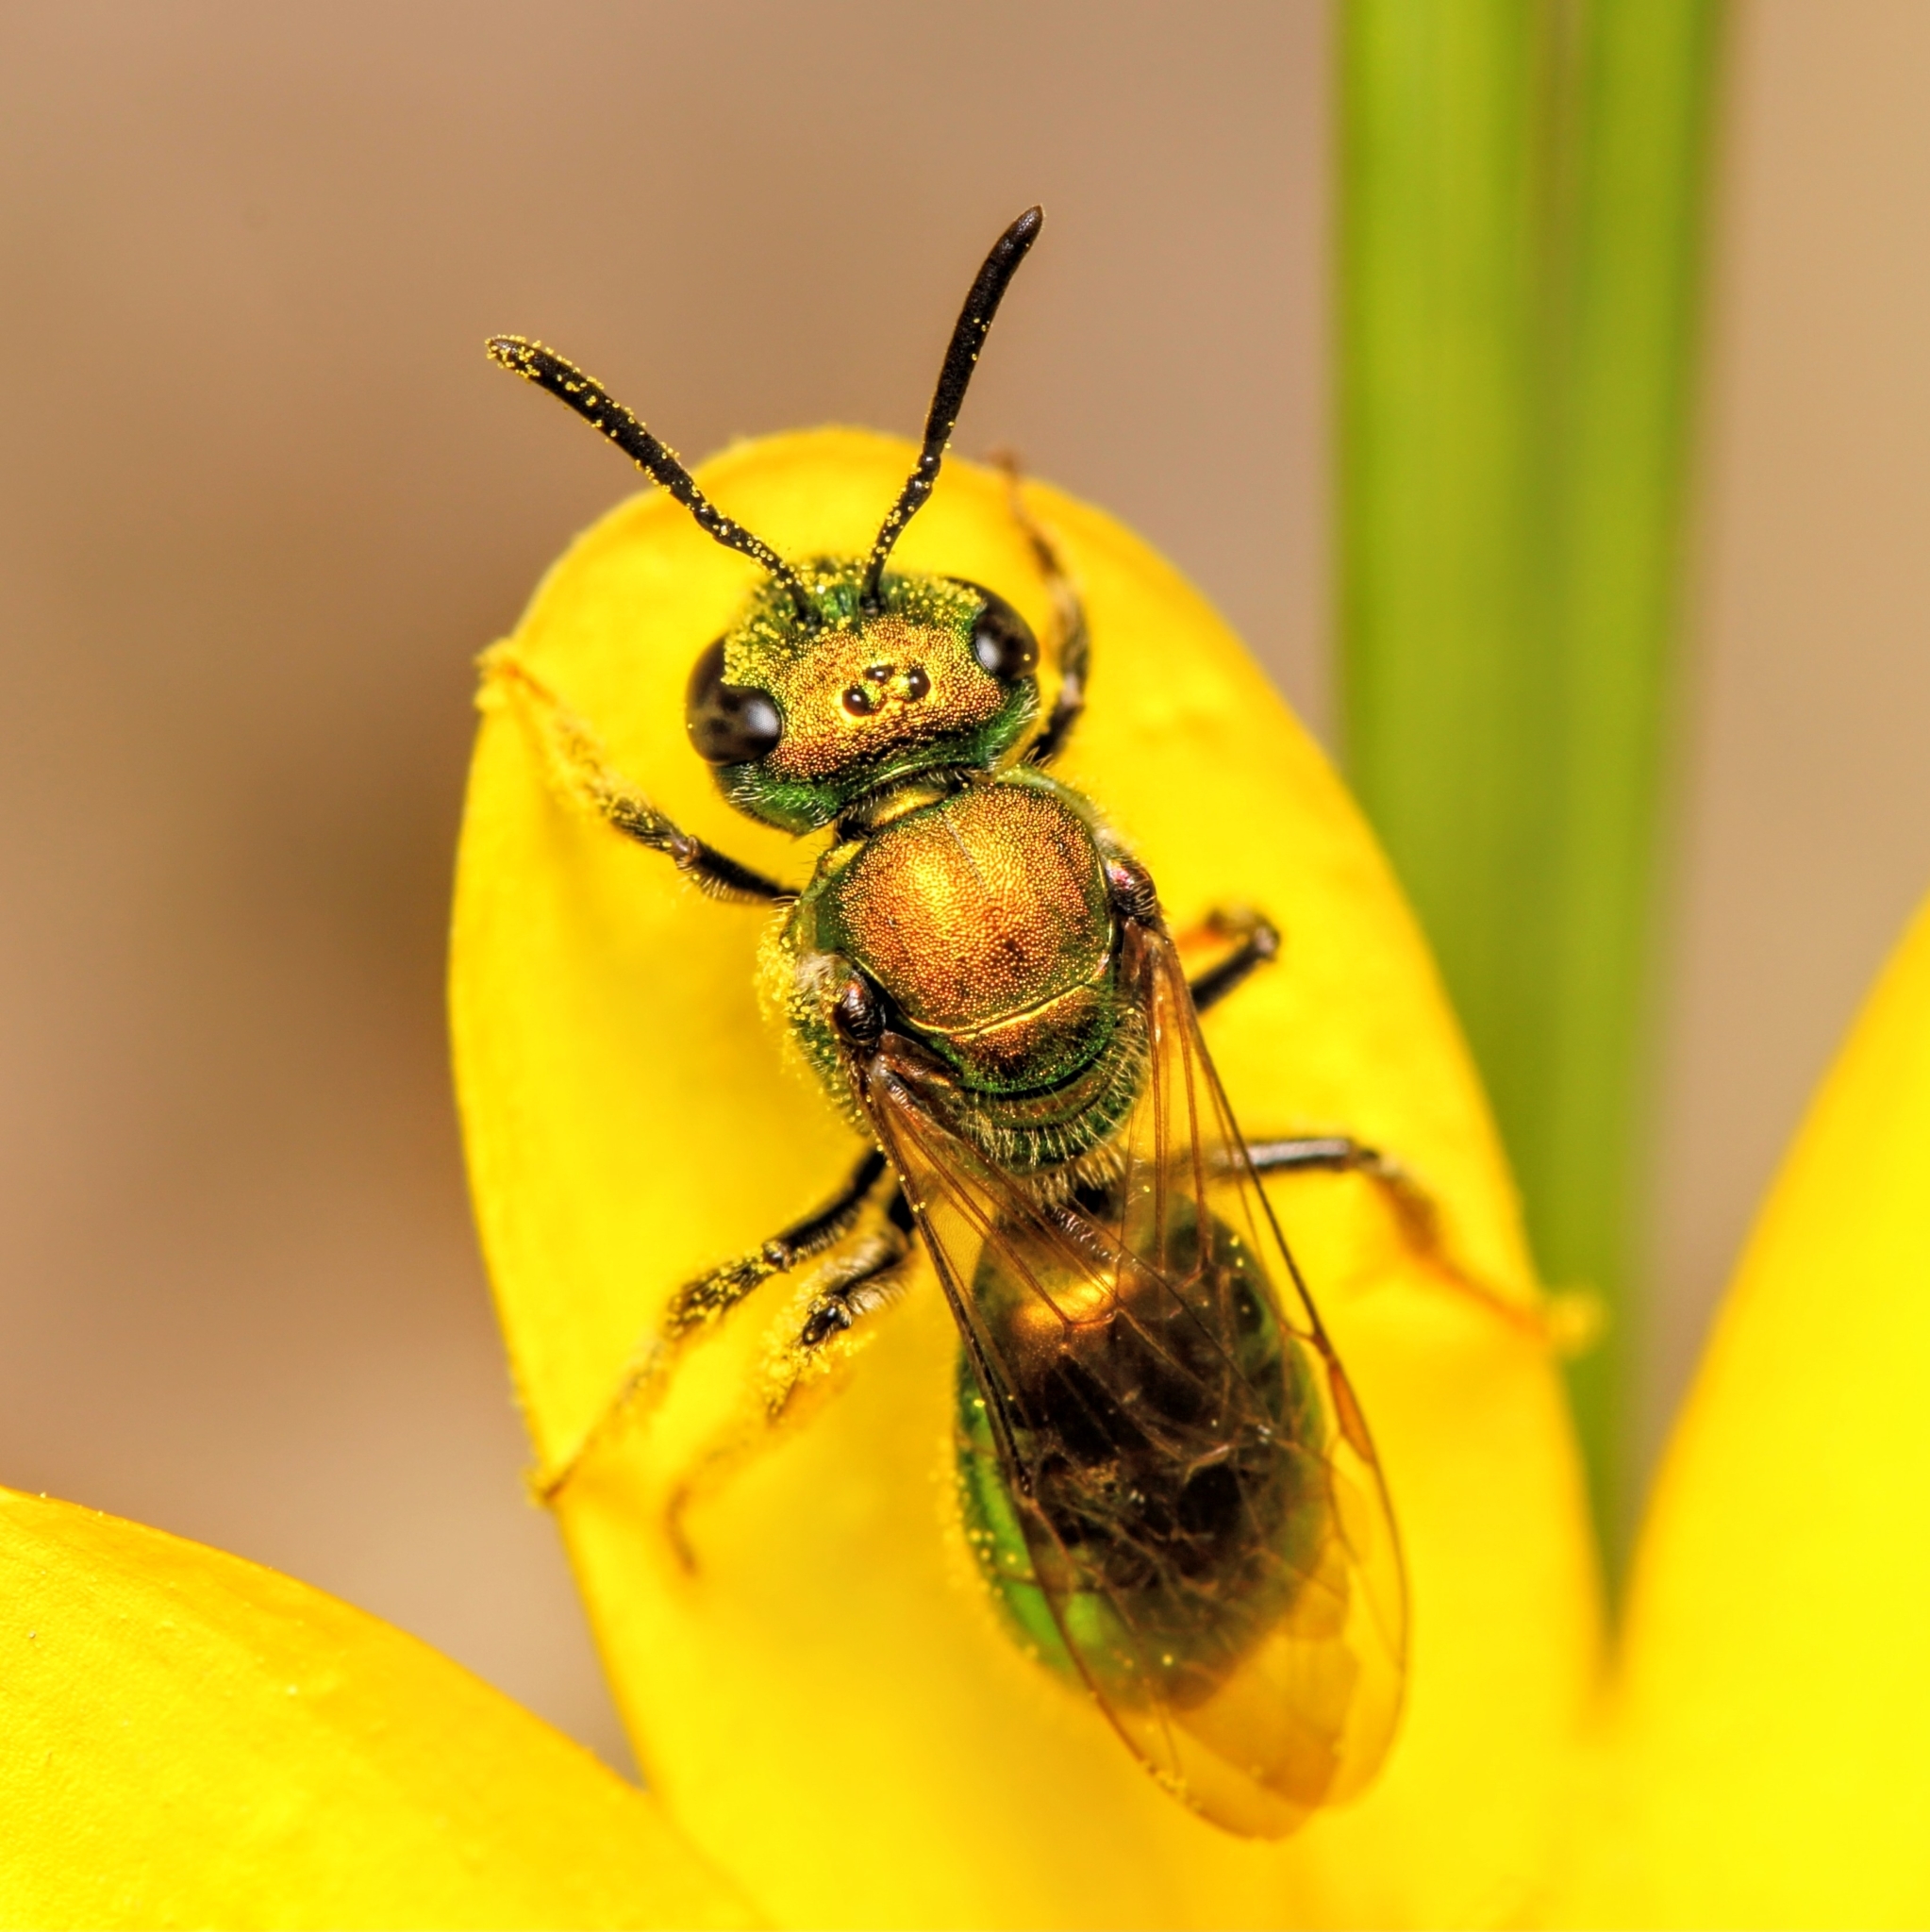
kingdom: Animalia
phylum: Arthropoda
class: Insecta
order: Hymenoptera
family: Halictidae
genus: Augochlora
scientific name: Augochlora pura
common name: Pure green sweat bee
